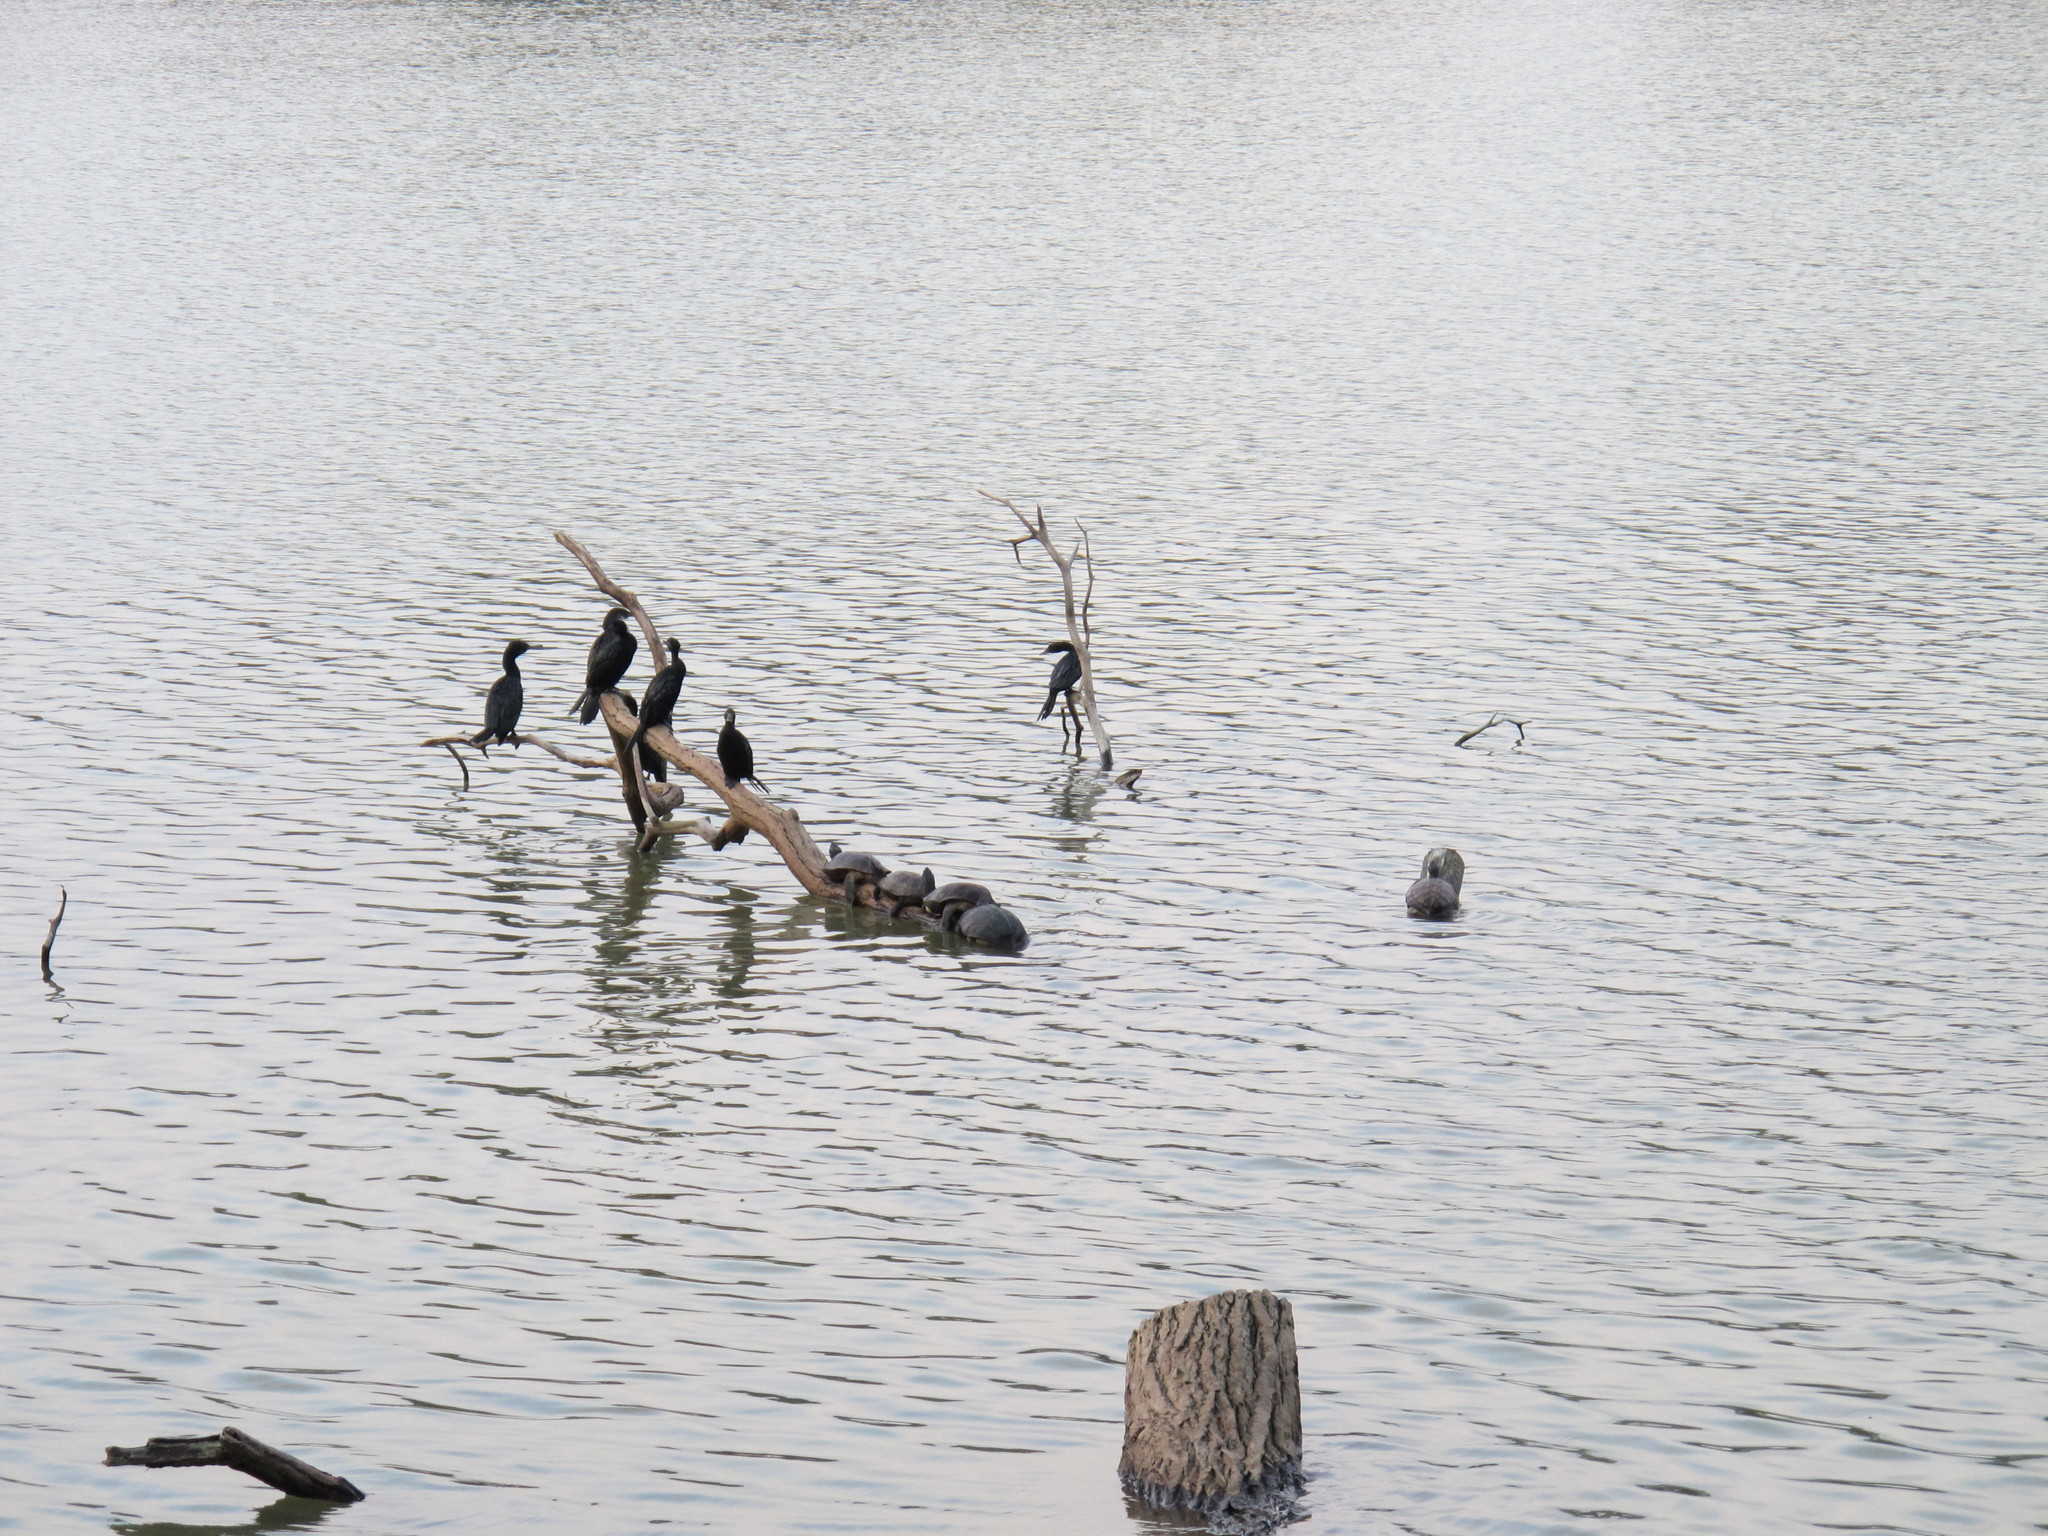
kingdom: Animalia
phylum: Chordata
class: Aves
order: Suliformes
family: Phalacrocoracidae
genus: Phalacrocorax
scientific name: Phalacrocorax fuscicollis
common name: Indian cormorant
